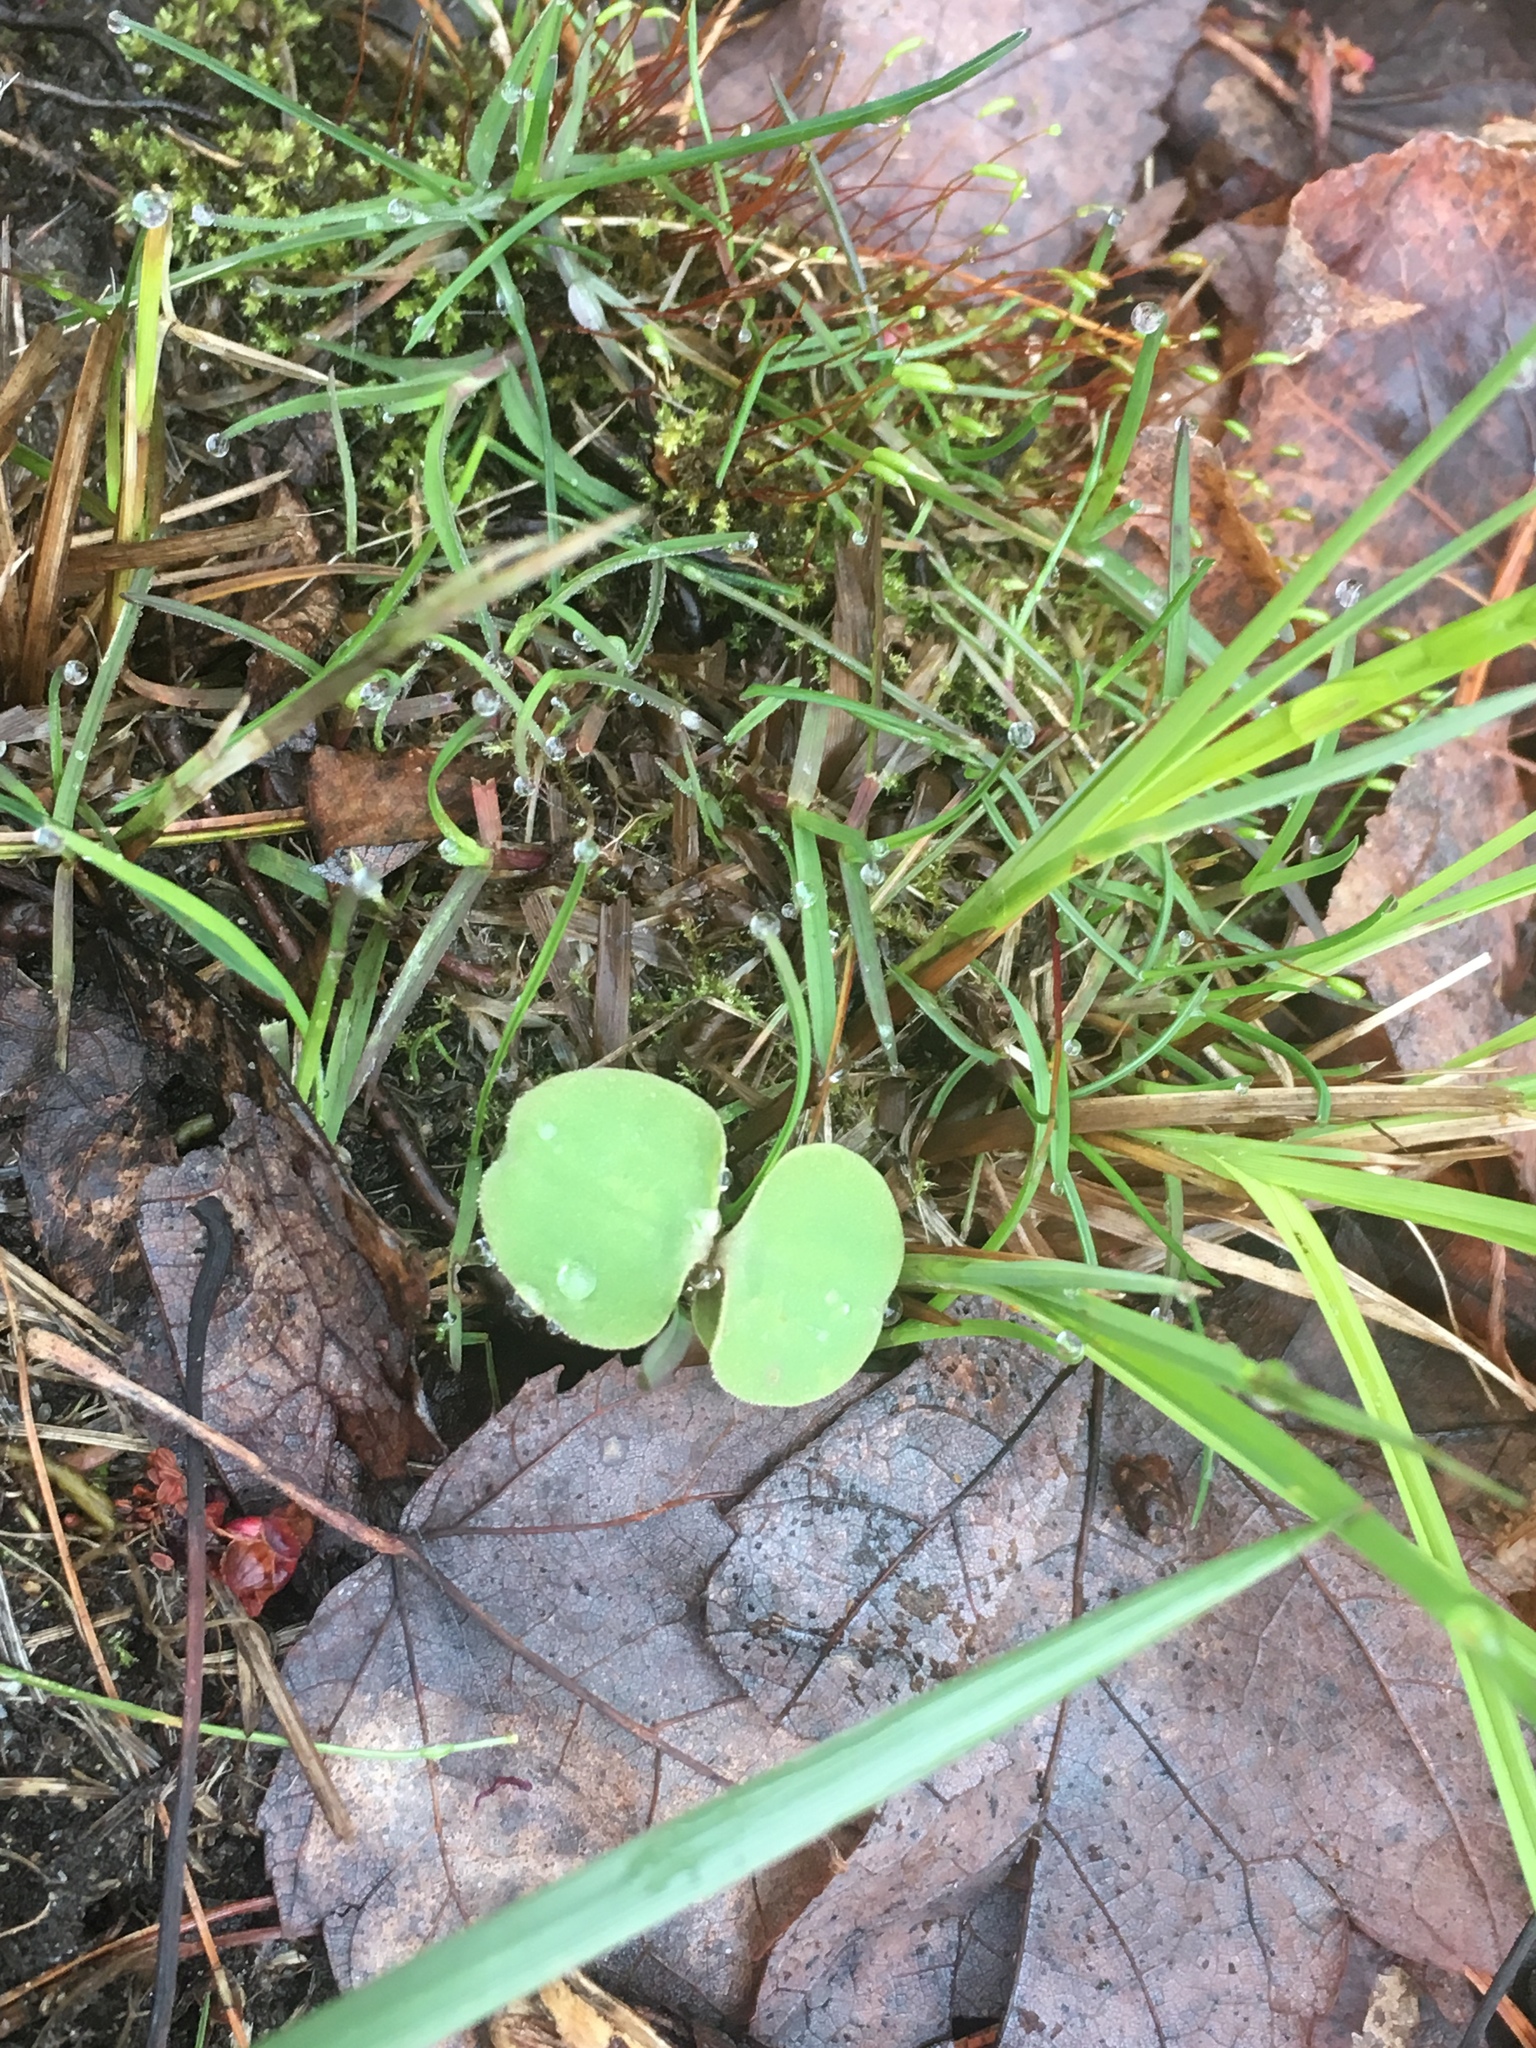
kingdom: Plantae
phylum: Tracheophyta
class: Magnoliopsida
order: Ericales
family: Balsaminaceae
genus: Impatiens
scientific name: Impatiens capensis
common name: Orange balsam
